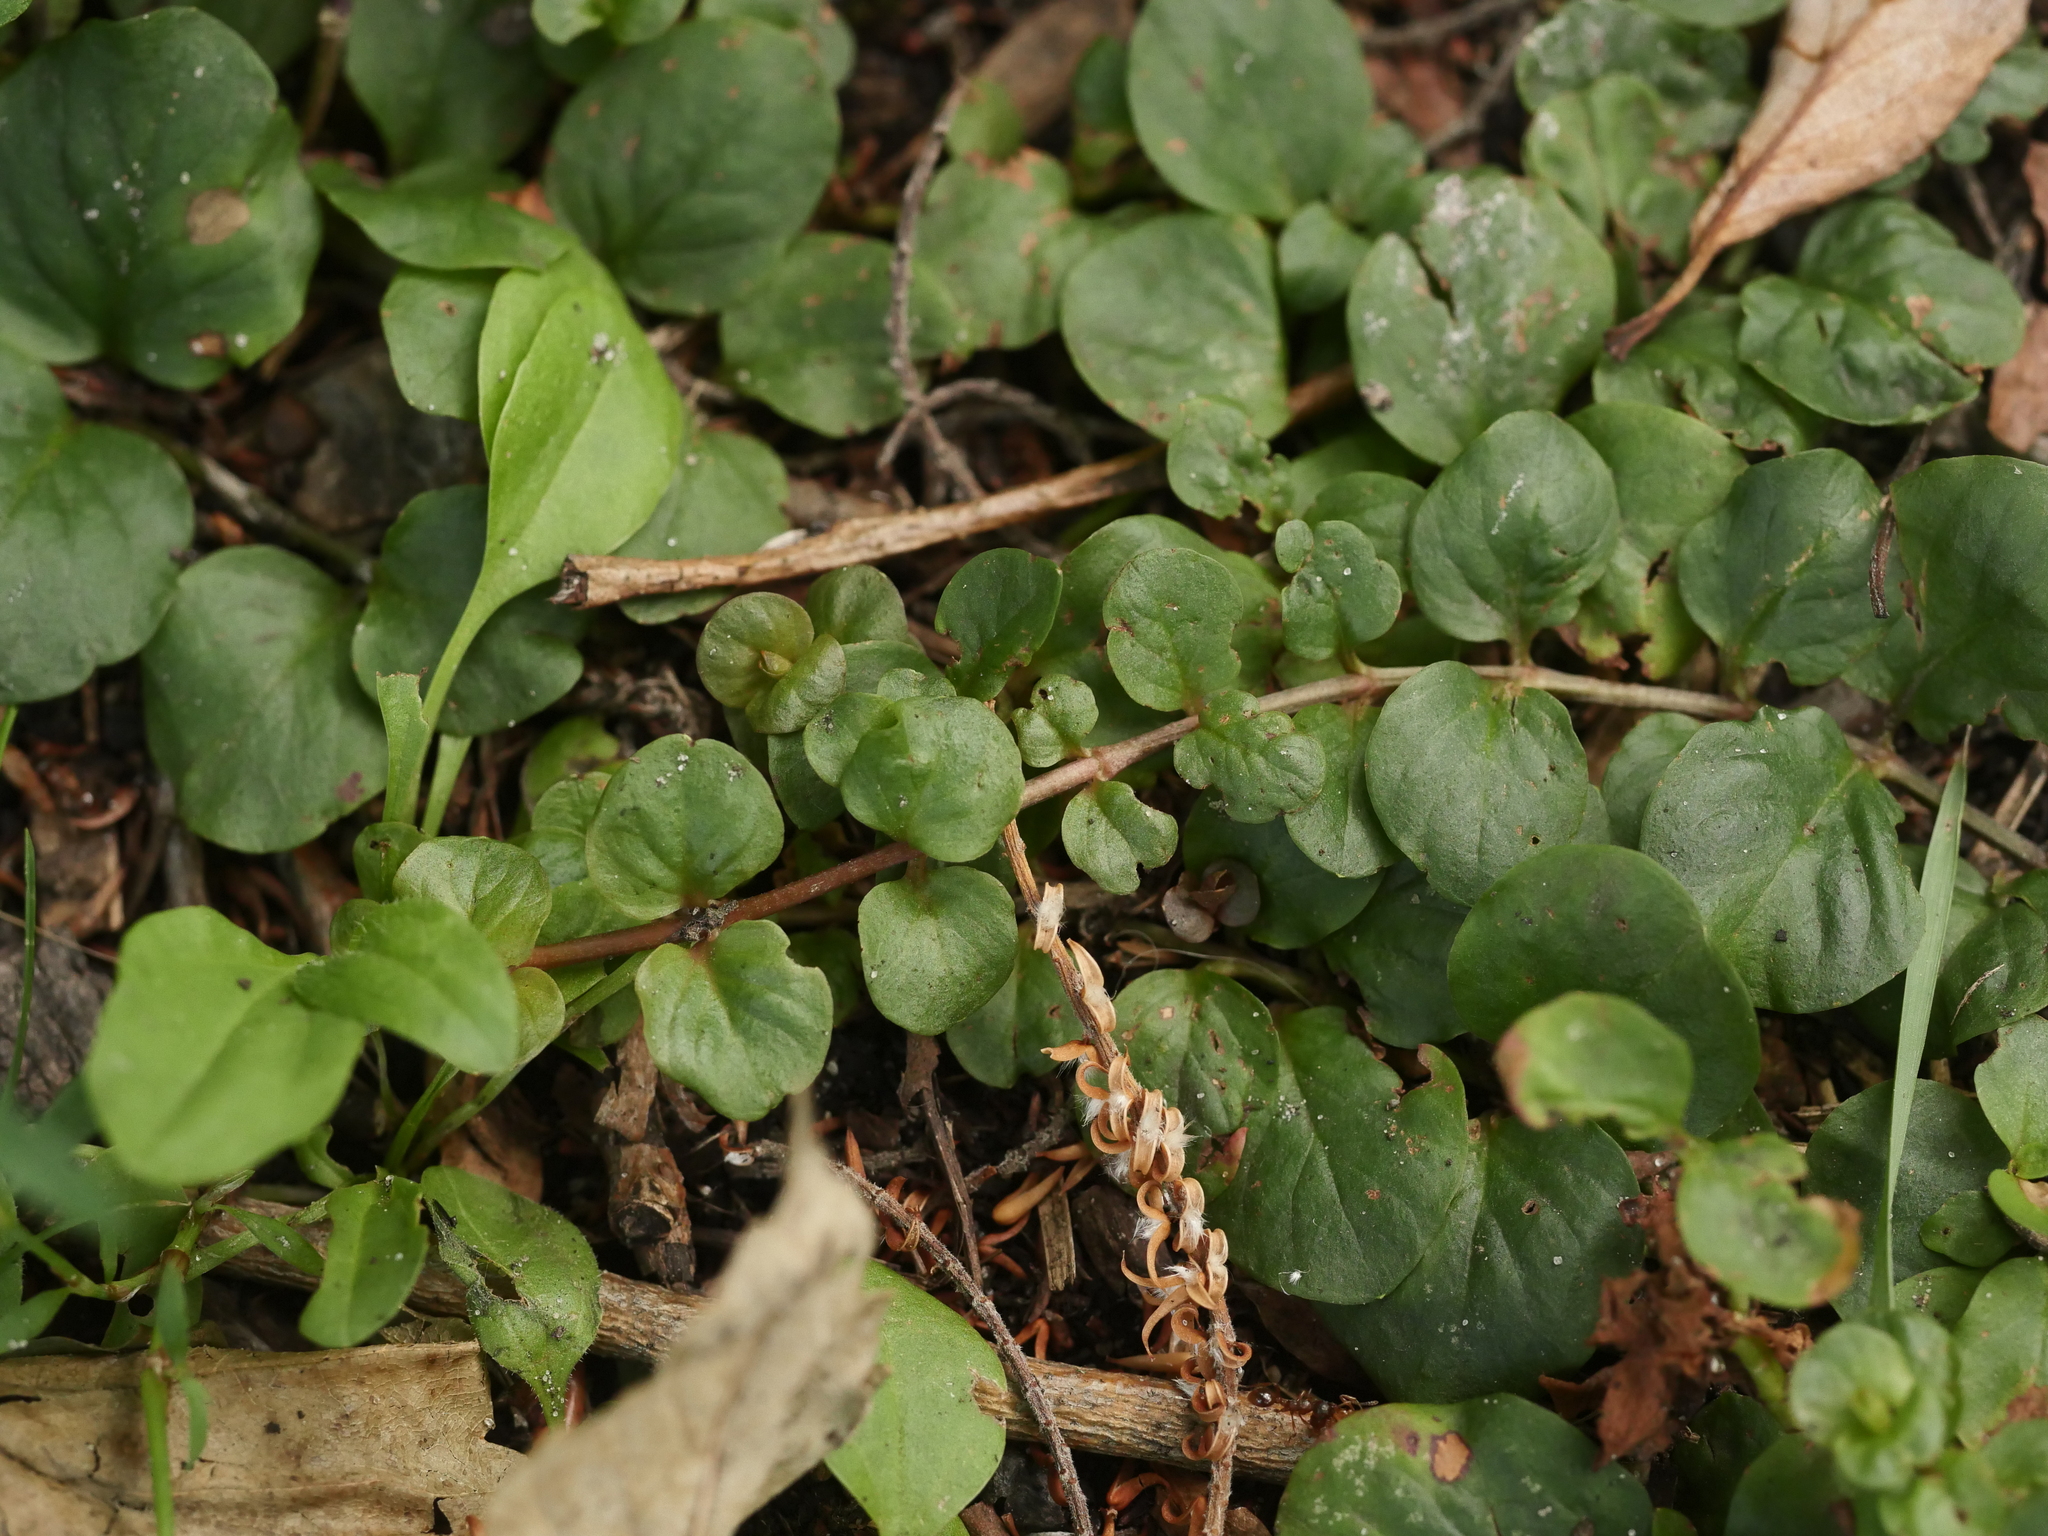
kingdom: Plantae
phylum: Tracheophyta
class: Magnoliopsida
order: Ericales
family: Primulaceae
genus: Lysimachia
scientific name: Lysimachia nummularia
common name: Moneywort
